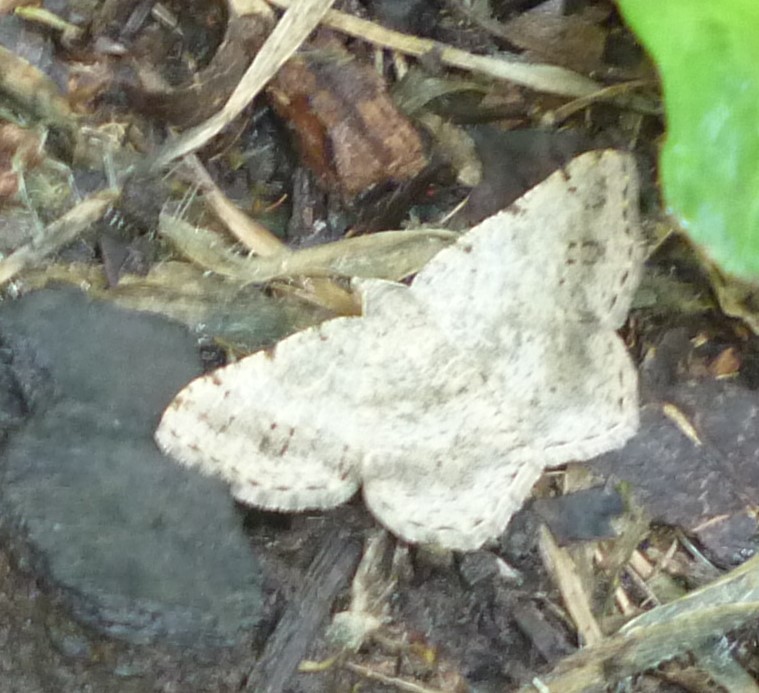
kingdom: Animalia
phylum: Arthropoda
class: Insecta
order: Lepidoptera
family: Geometridae
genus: Digrammia
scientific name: Digrammia ocellinata
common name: Faint-spotted angle
